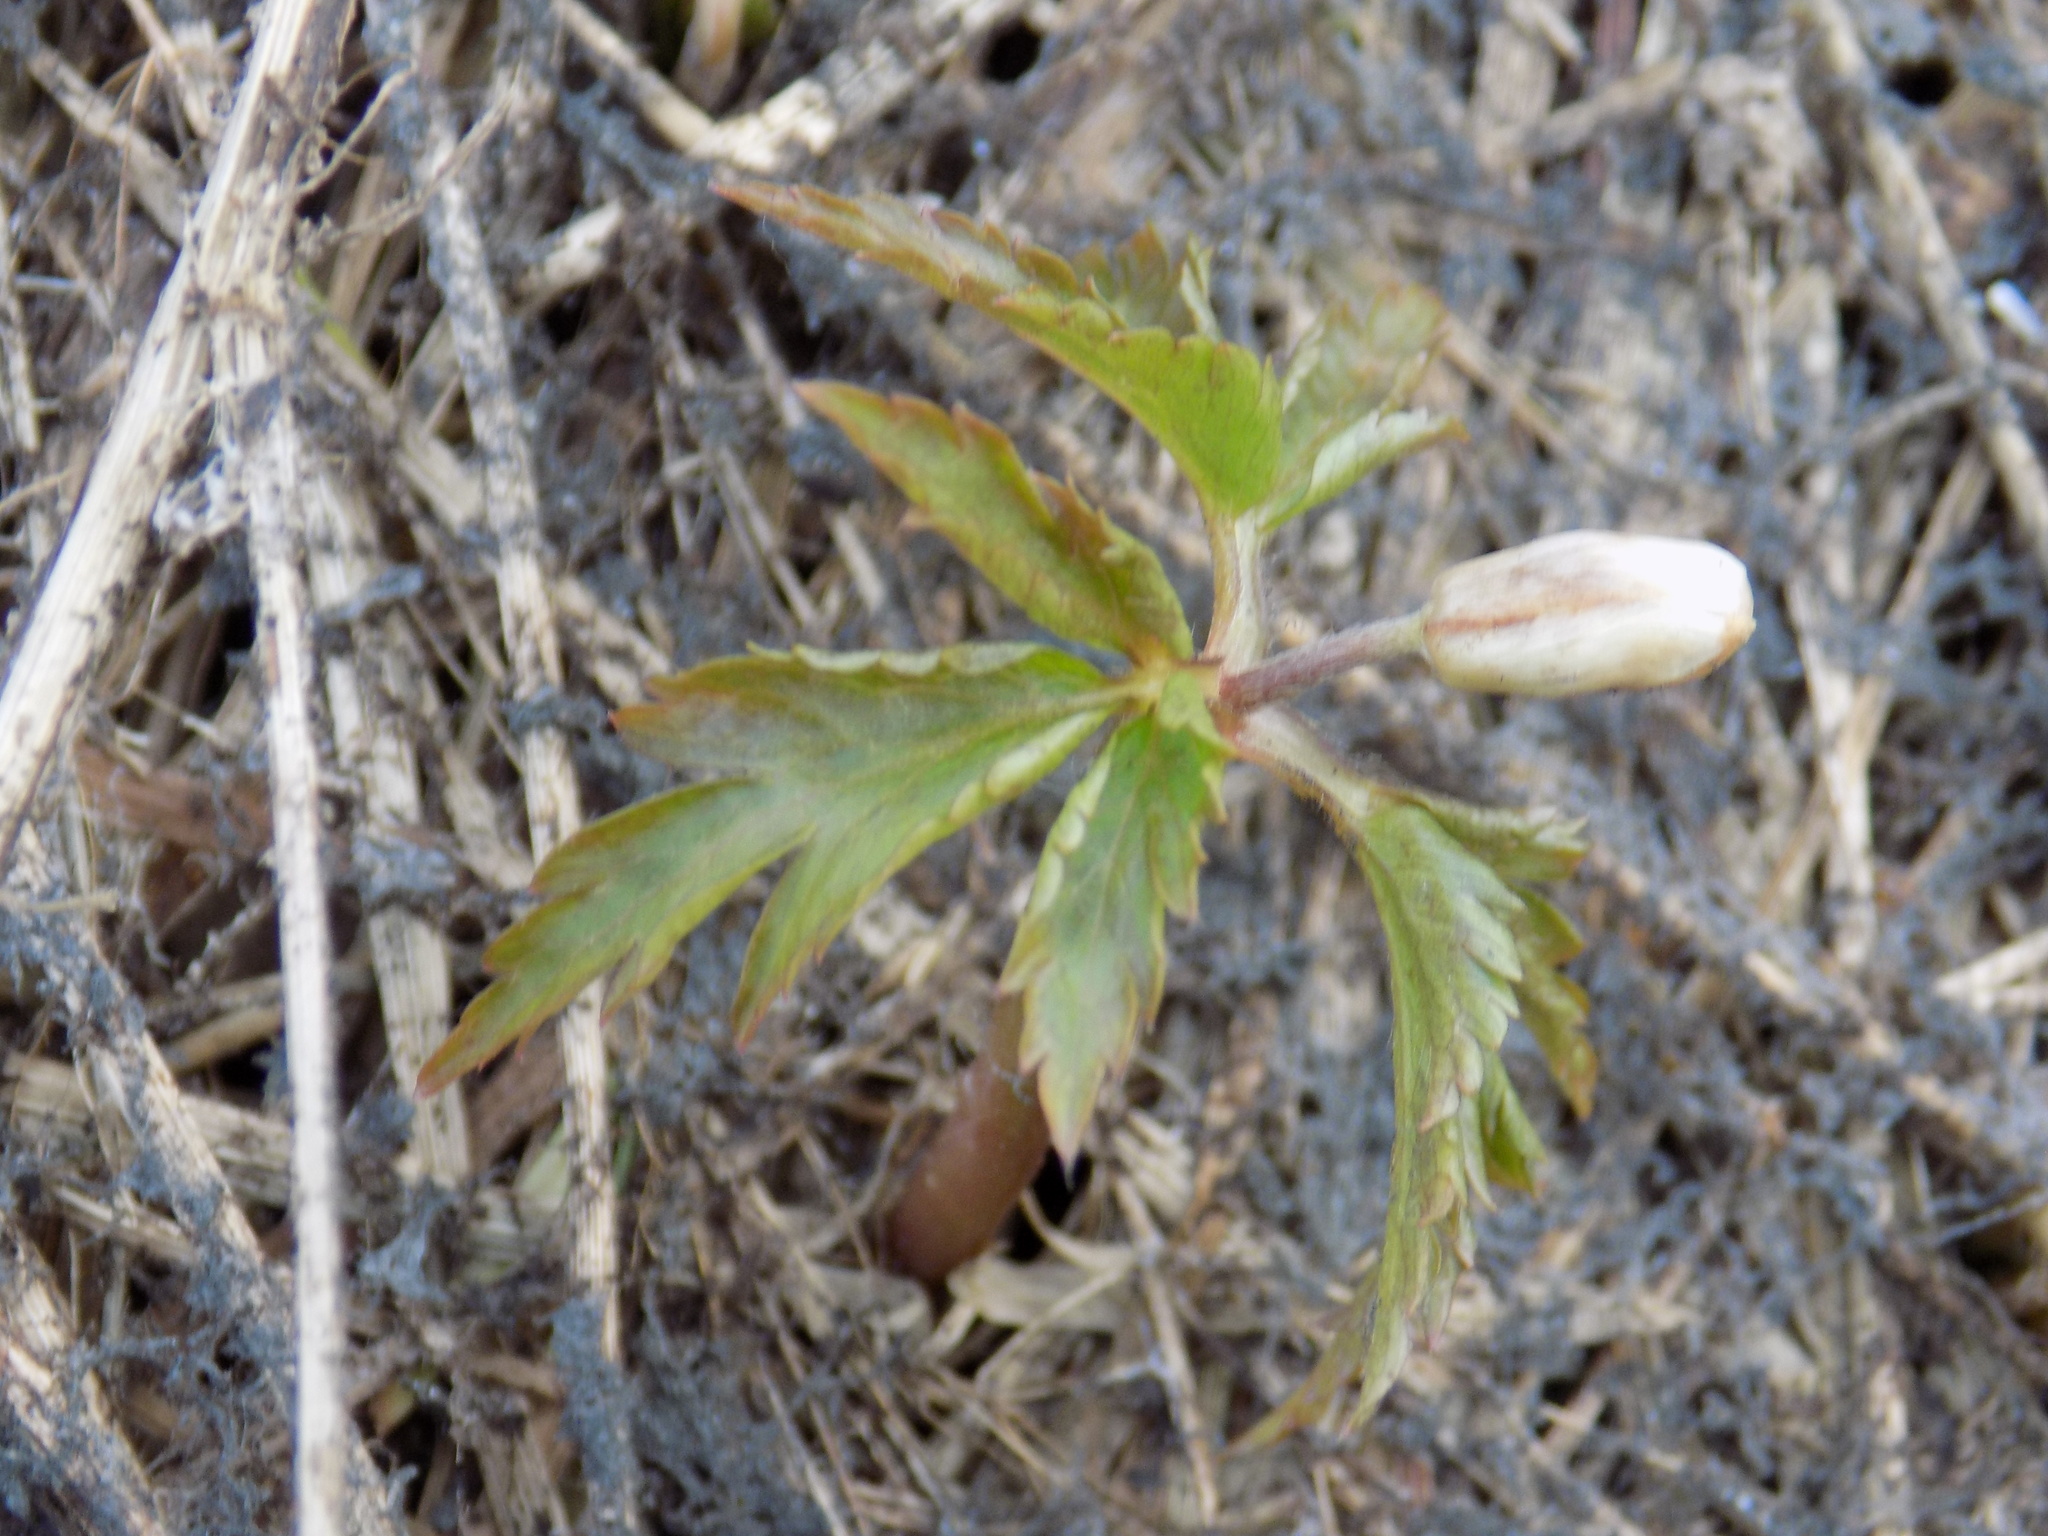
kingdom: Plantae
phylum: Tracheophyta
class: Magnoliopsida
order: Ranunculales
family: Ranunculaceae
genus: Anemone
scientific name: Anemone altaica
